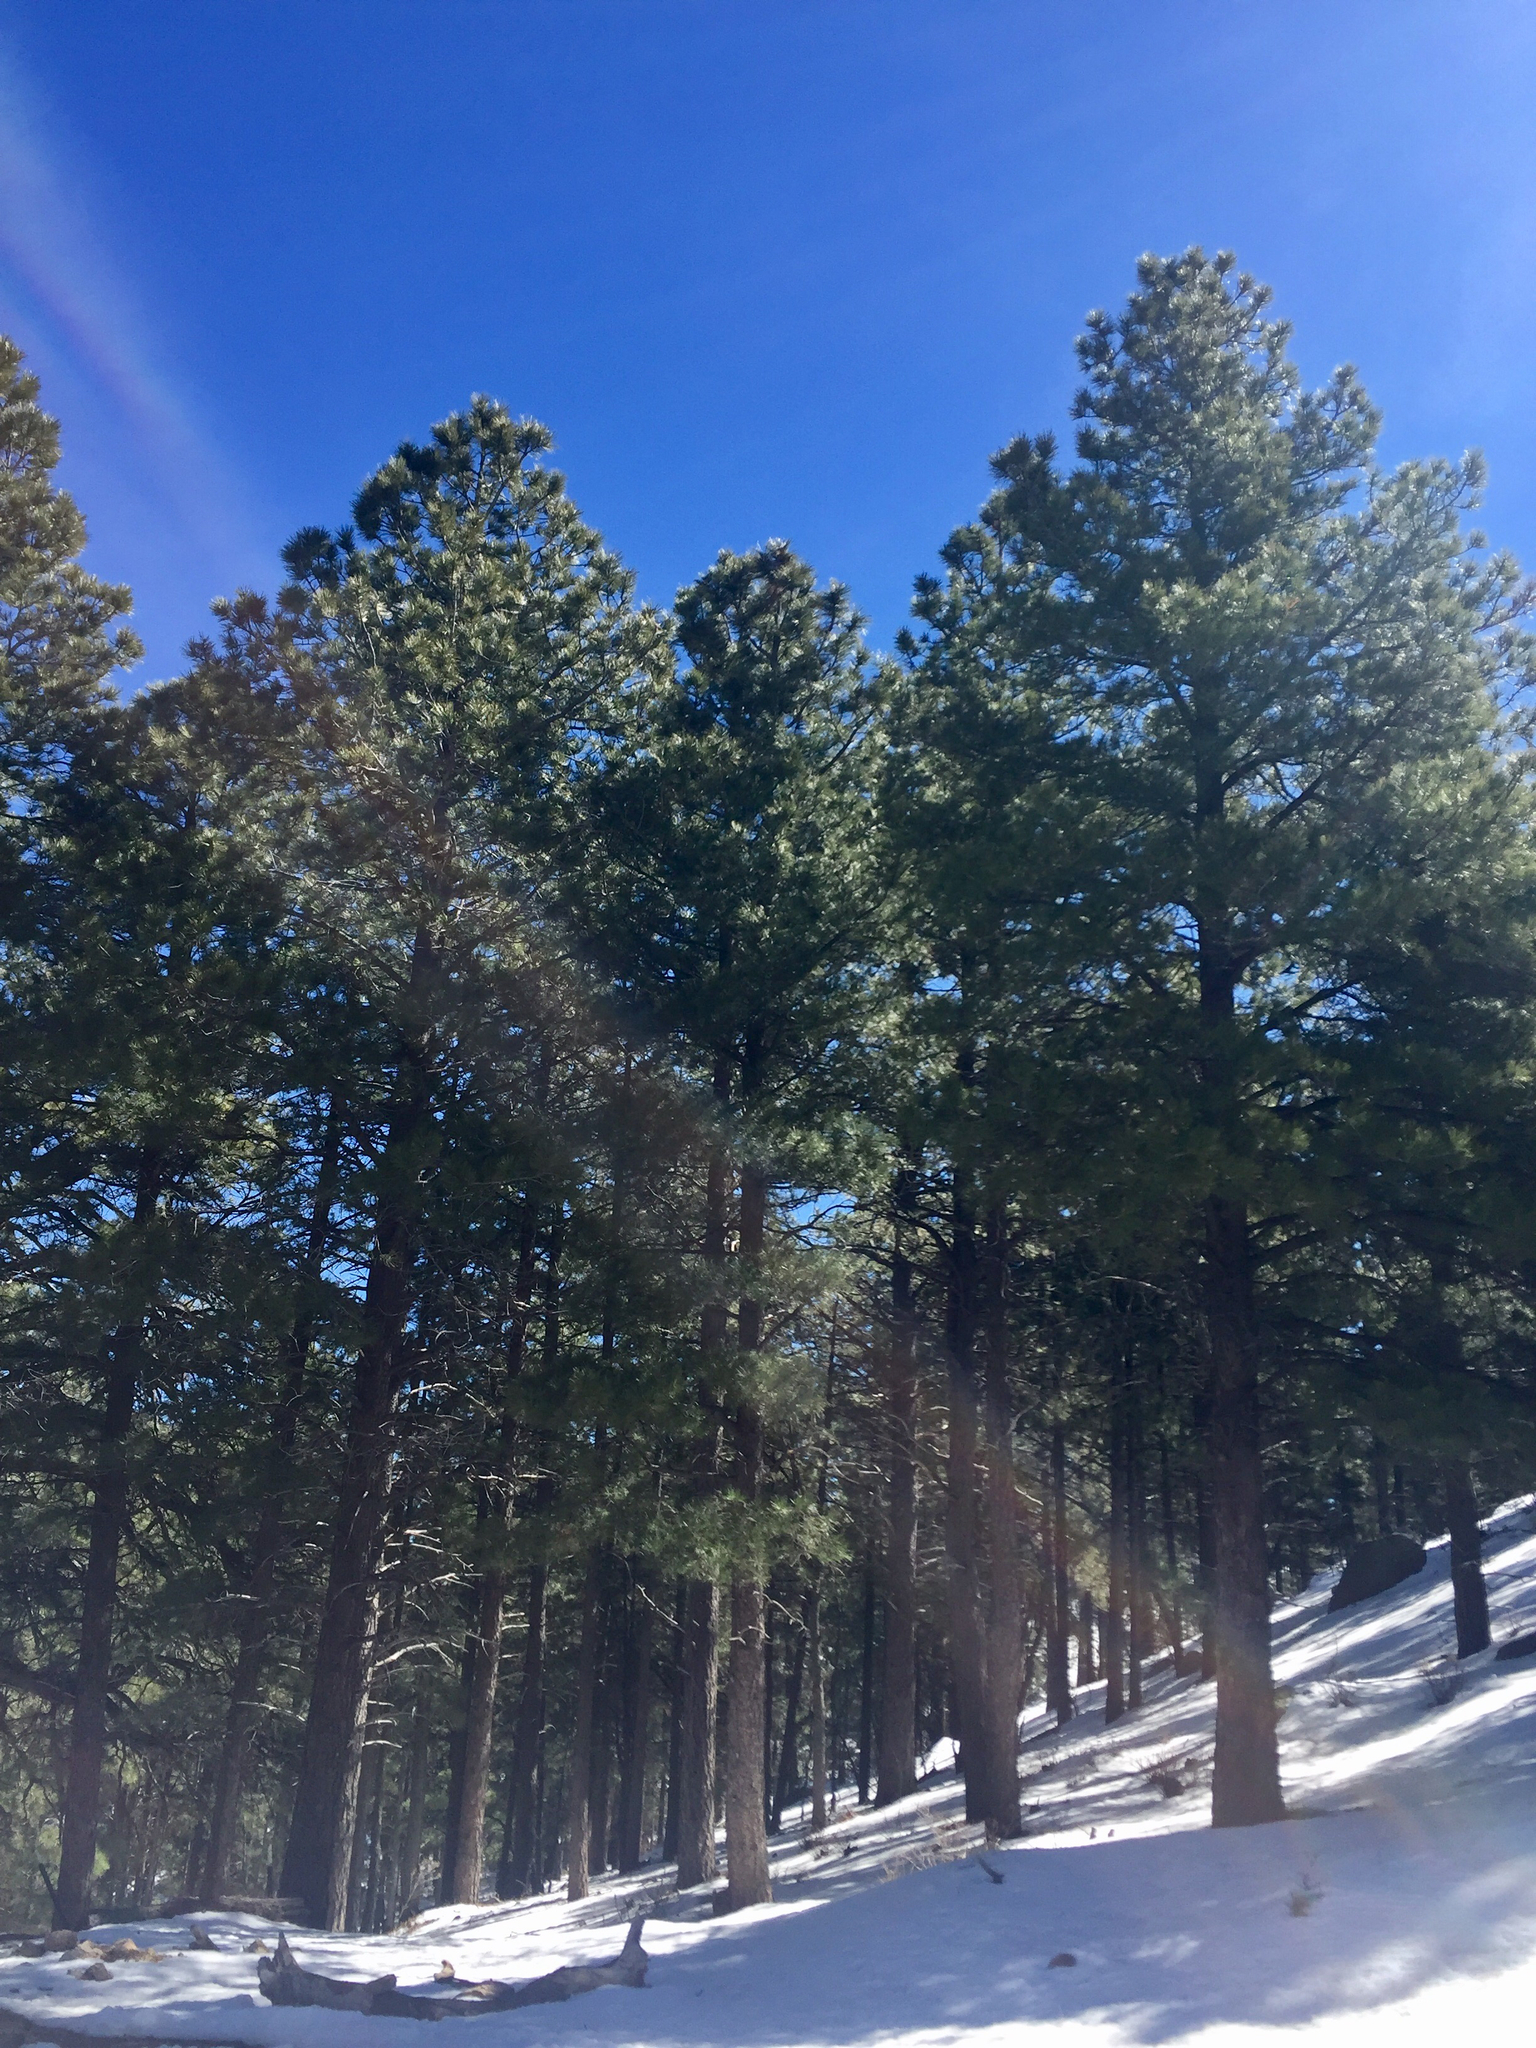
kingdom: Plantae
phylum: Tracheophyta
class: Pinopsida
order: Pinales
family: Pinaceae
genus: Pinus
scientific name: Pinus ponderosa
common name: Western yellow-pine
